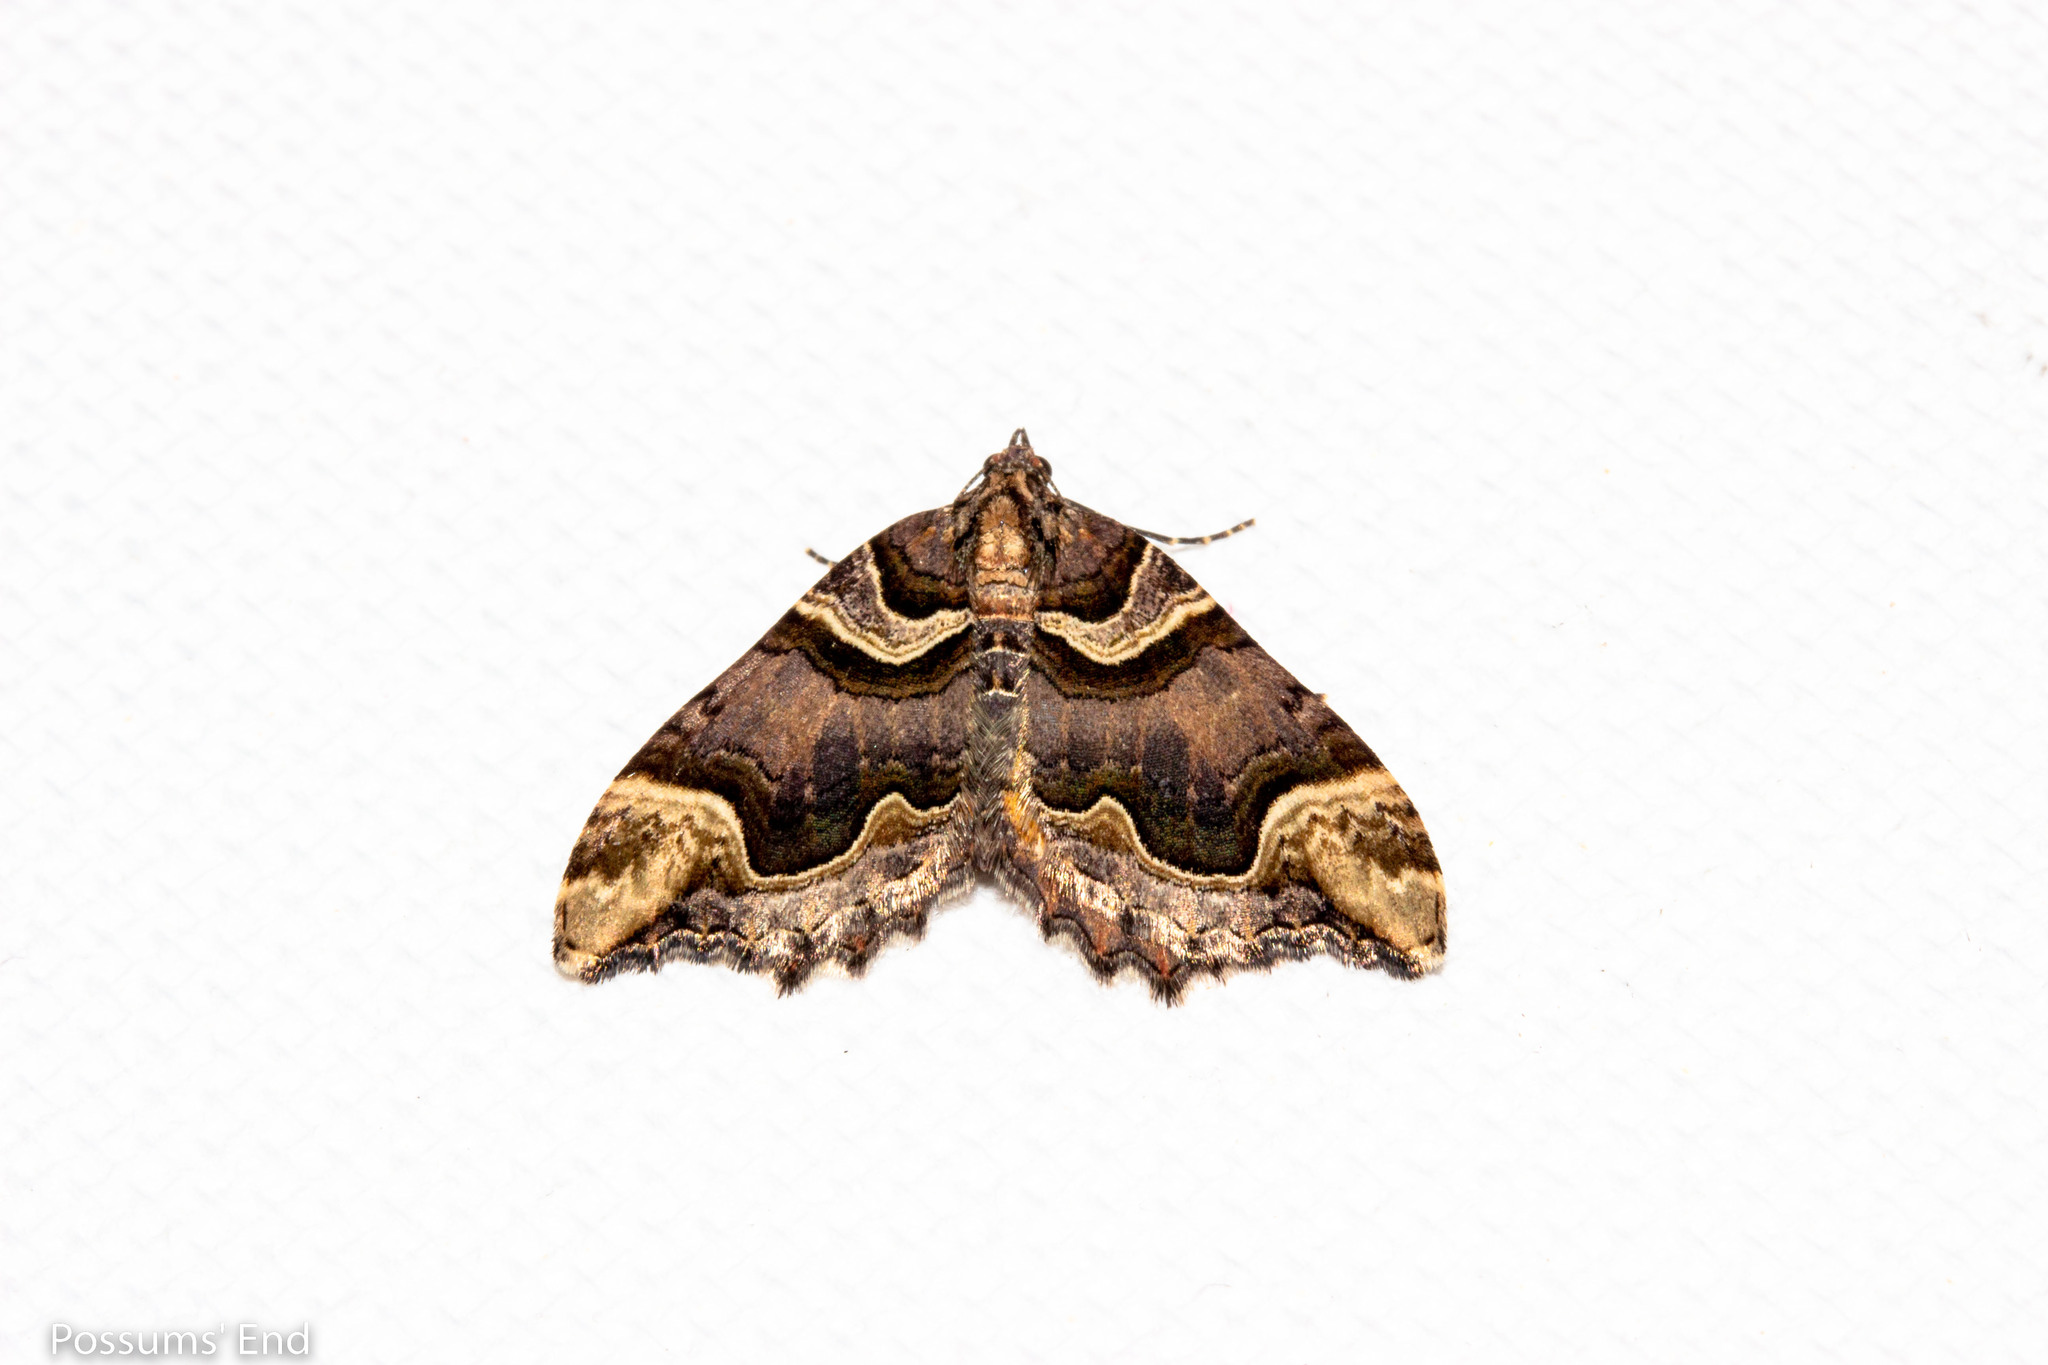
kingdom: Animalia
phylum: Arthropoda
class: Insecta
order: Lepidoptera
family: Geometridae
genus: Asaphodes
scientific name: Asaphodes chlamydota
